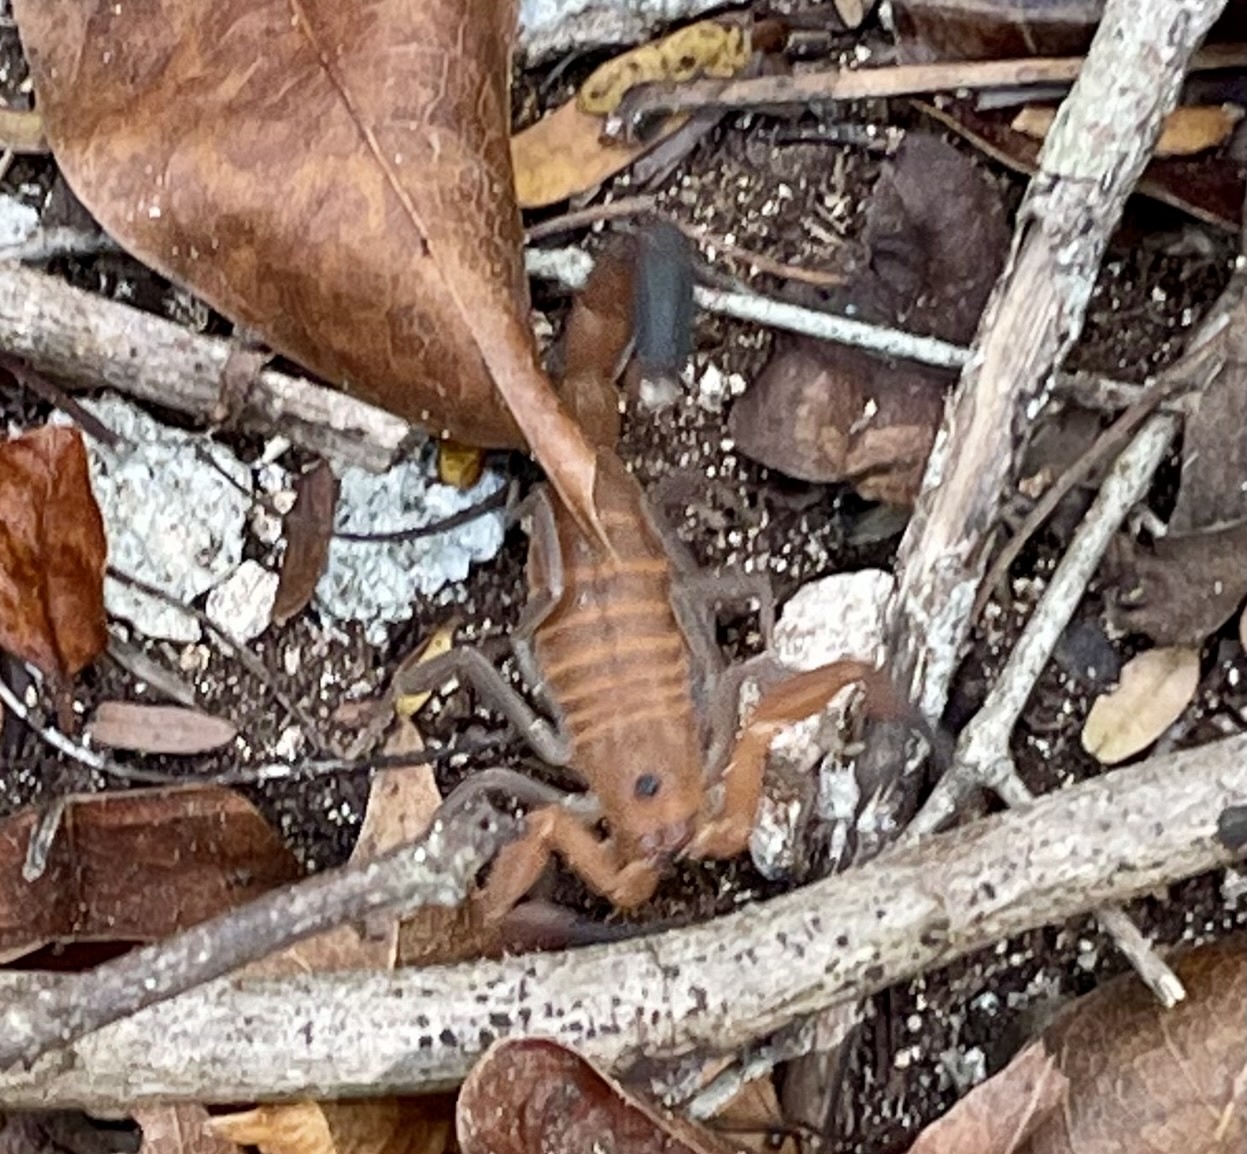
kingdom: Animalia
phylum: Arthropoda
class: Arachnida
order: Scorpiones
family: Buthidae
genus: Heteroctenus
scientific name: Heteroctenus junceus
